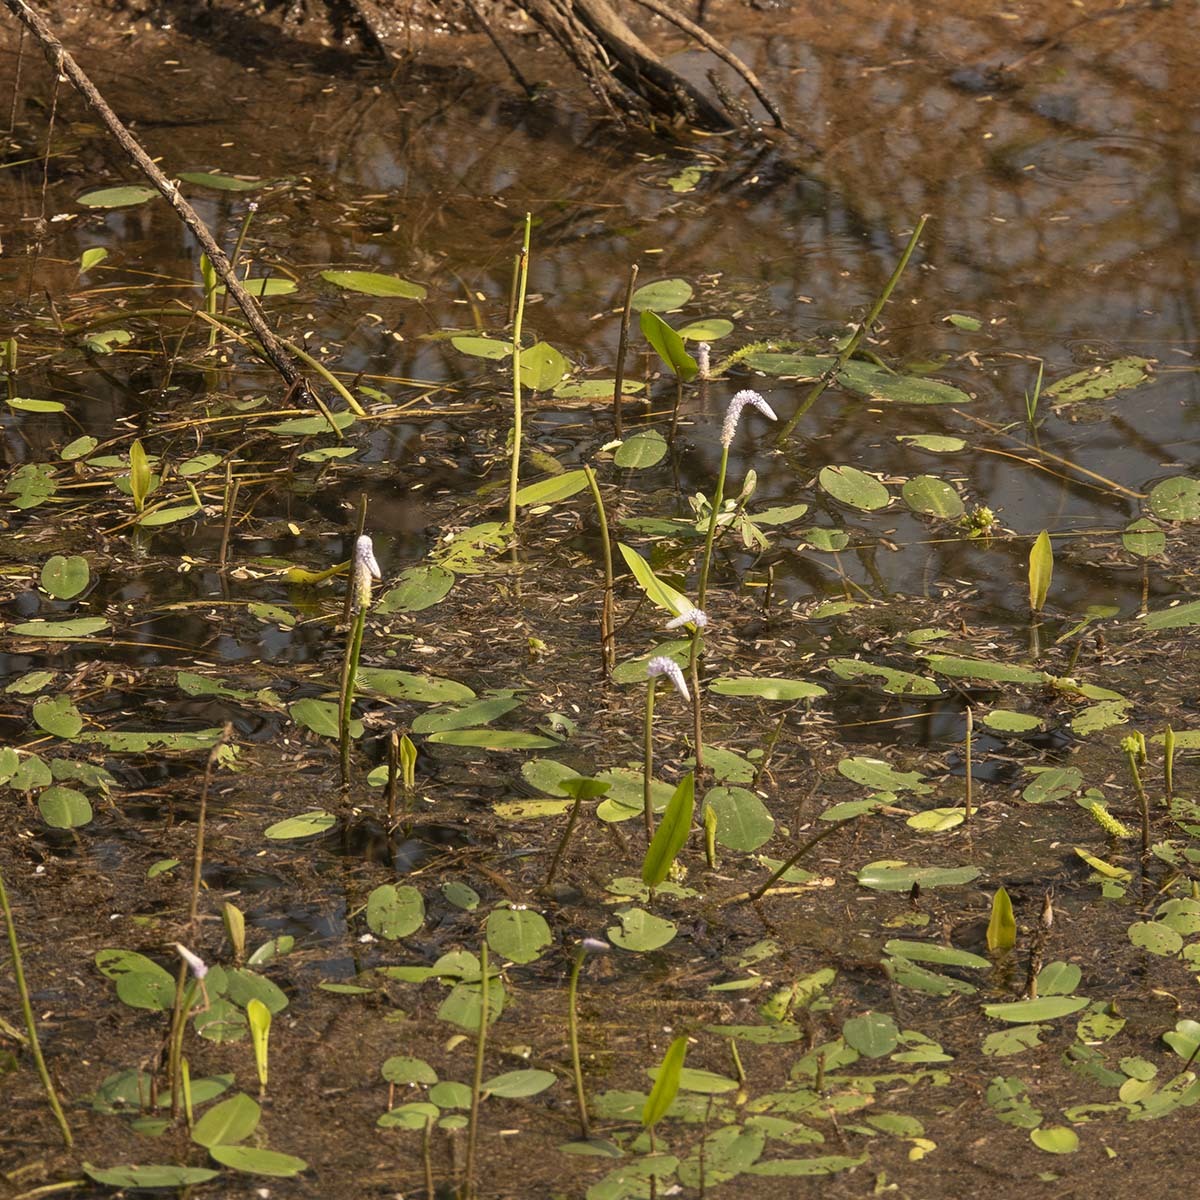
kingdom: Plantae
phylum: Tracheophyta
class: Liliopsida
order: Alismatales
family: Aponogetonaceae
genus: Aponogeton
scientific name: Aponogeton natans
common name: Drifting sword plant
